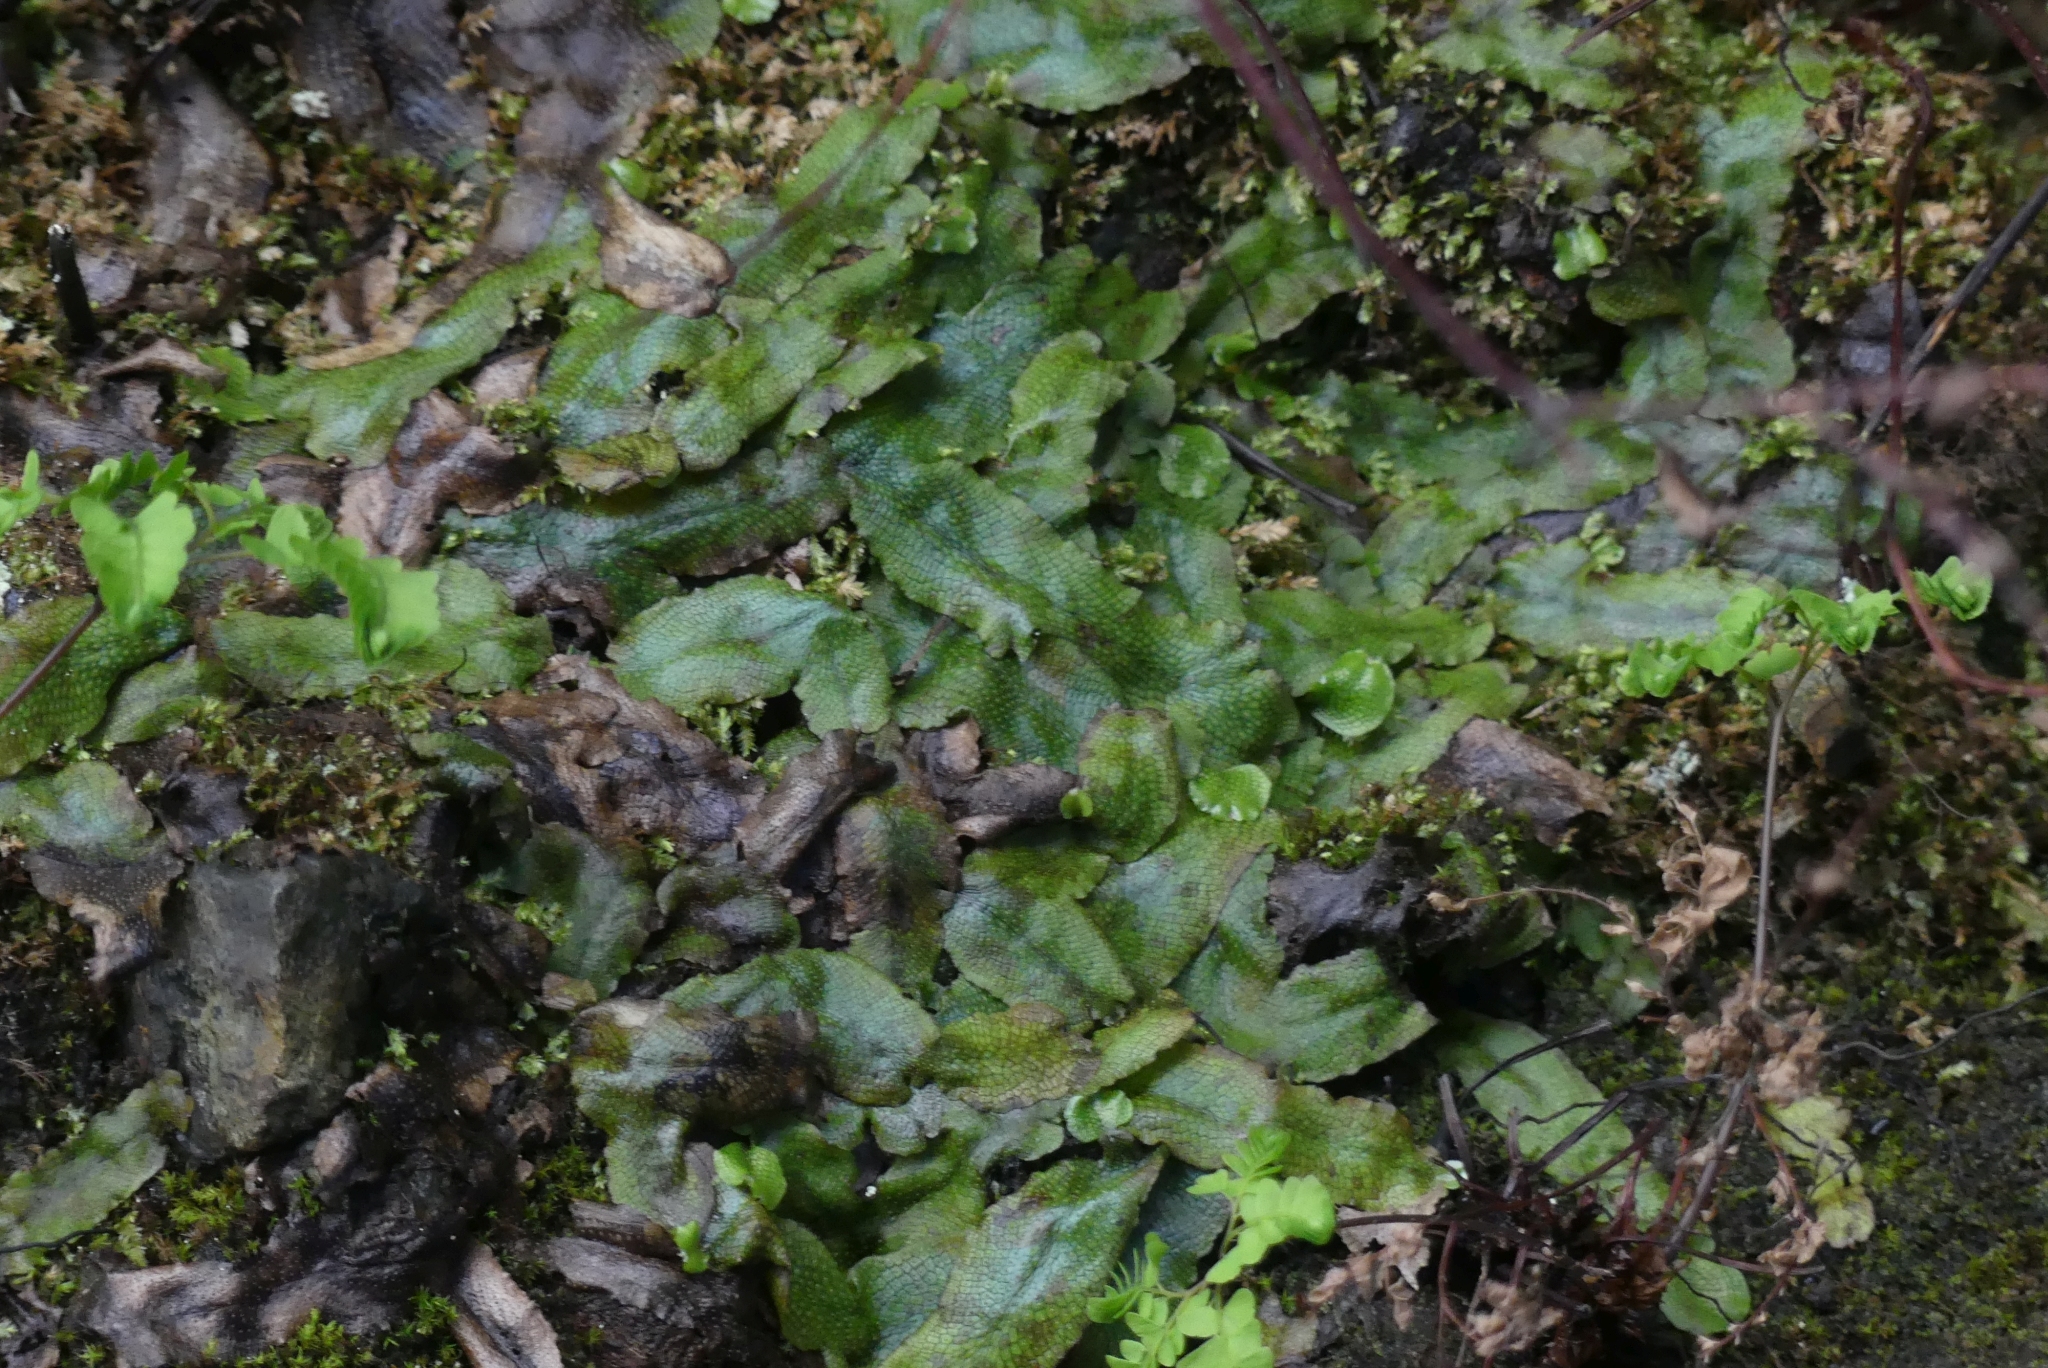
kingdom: Plantae
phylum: Marchantiophyta
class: Marchantiopsida
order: Marchantiales
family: Conocephalaceae
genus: Conocephalum
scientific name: Conocephalum salebrosum
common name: Cat-tongue liverwort
